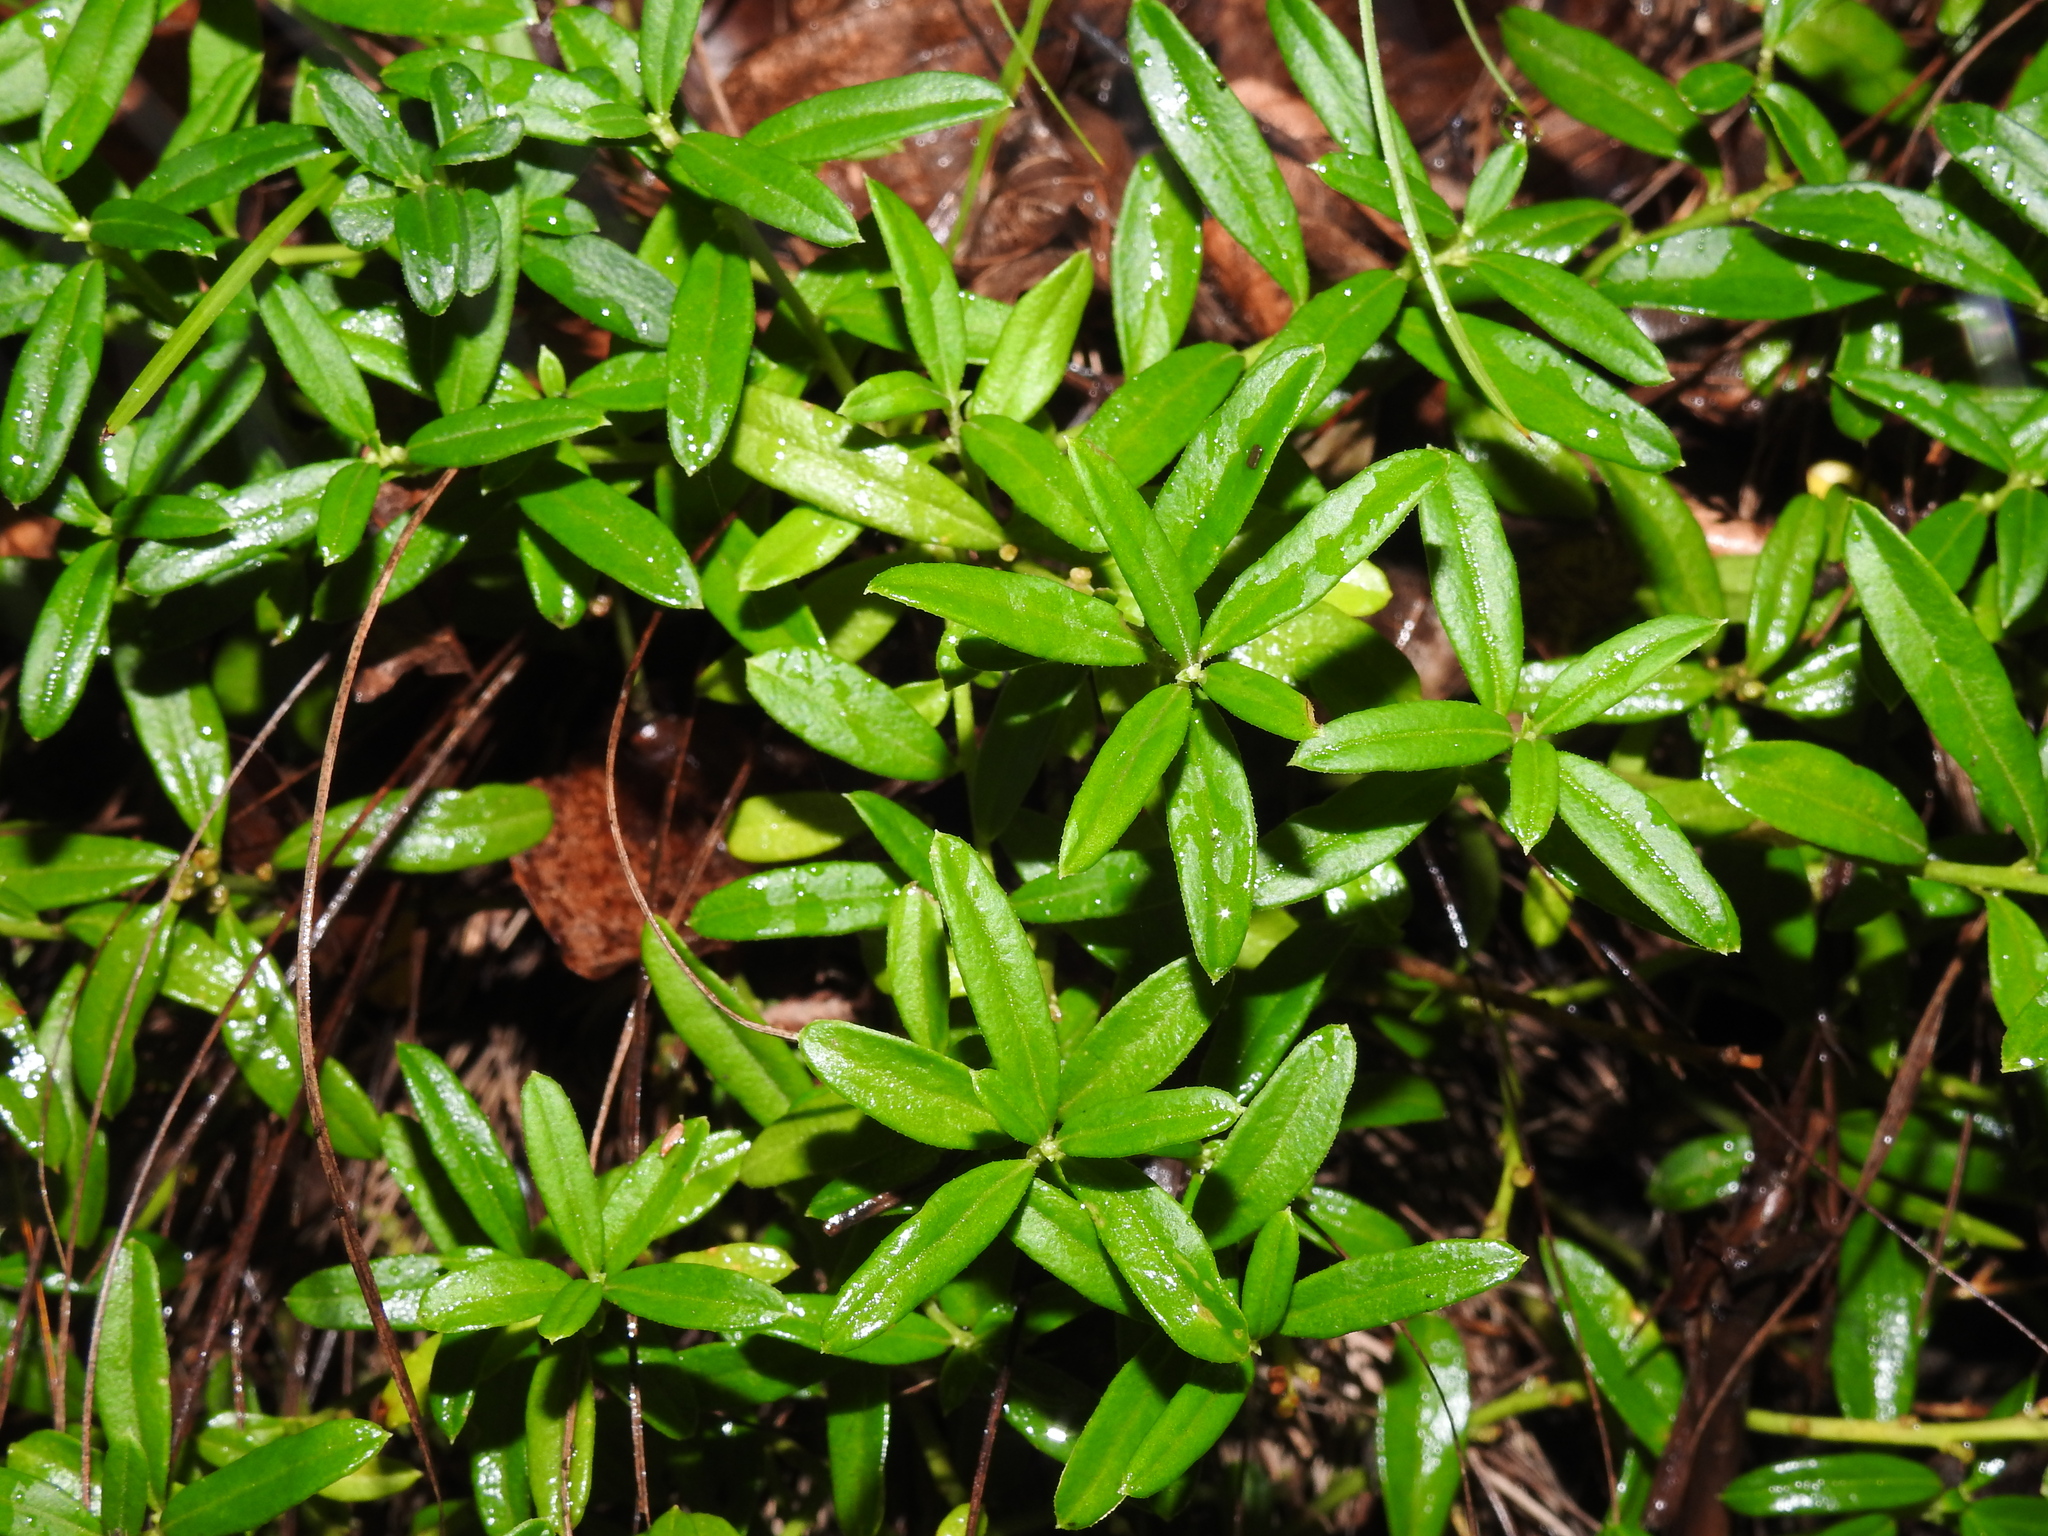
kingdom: Plantae
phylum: Tracheophyta
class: Magnoliopsida
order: Fabales
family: Polygalaceae
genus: Polygaloides
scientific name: Polygaloides chamaebuxus
